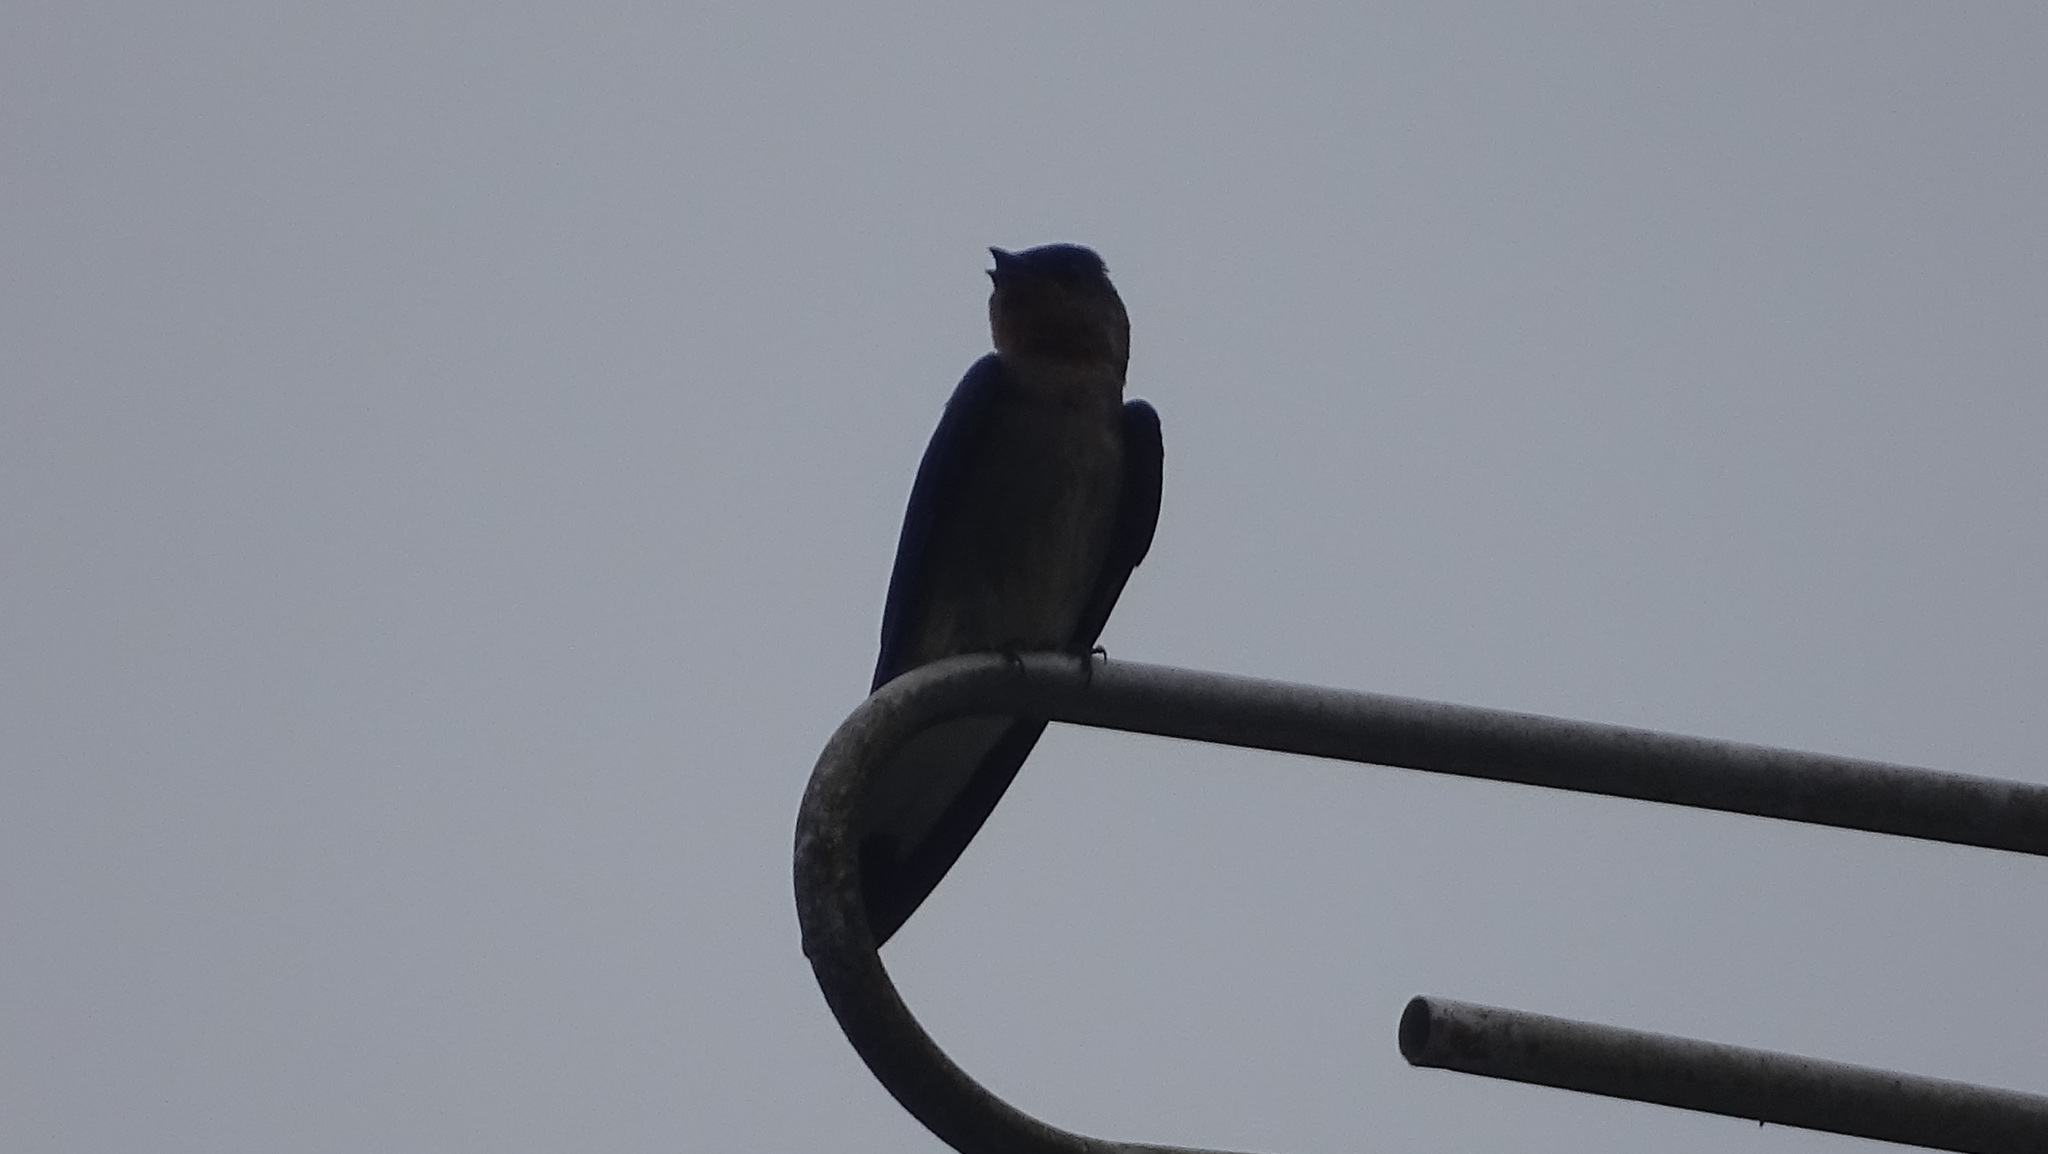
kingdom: Animalia
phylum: Chordata
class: Aves
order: Passeriformes
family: Hirundinidae
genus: Stelgidopteryx
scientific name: Stelgidopteryx ruficollis
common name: Southern rough-winged swallow
